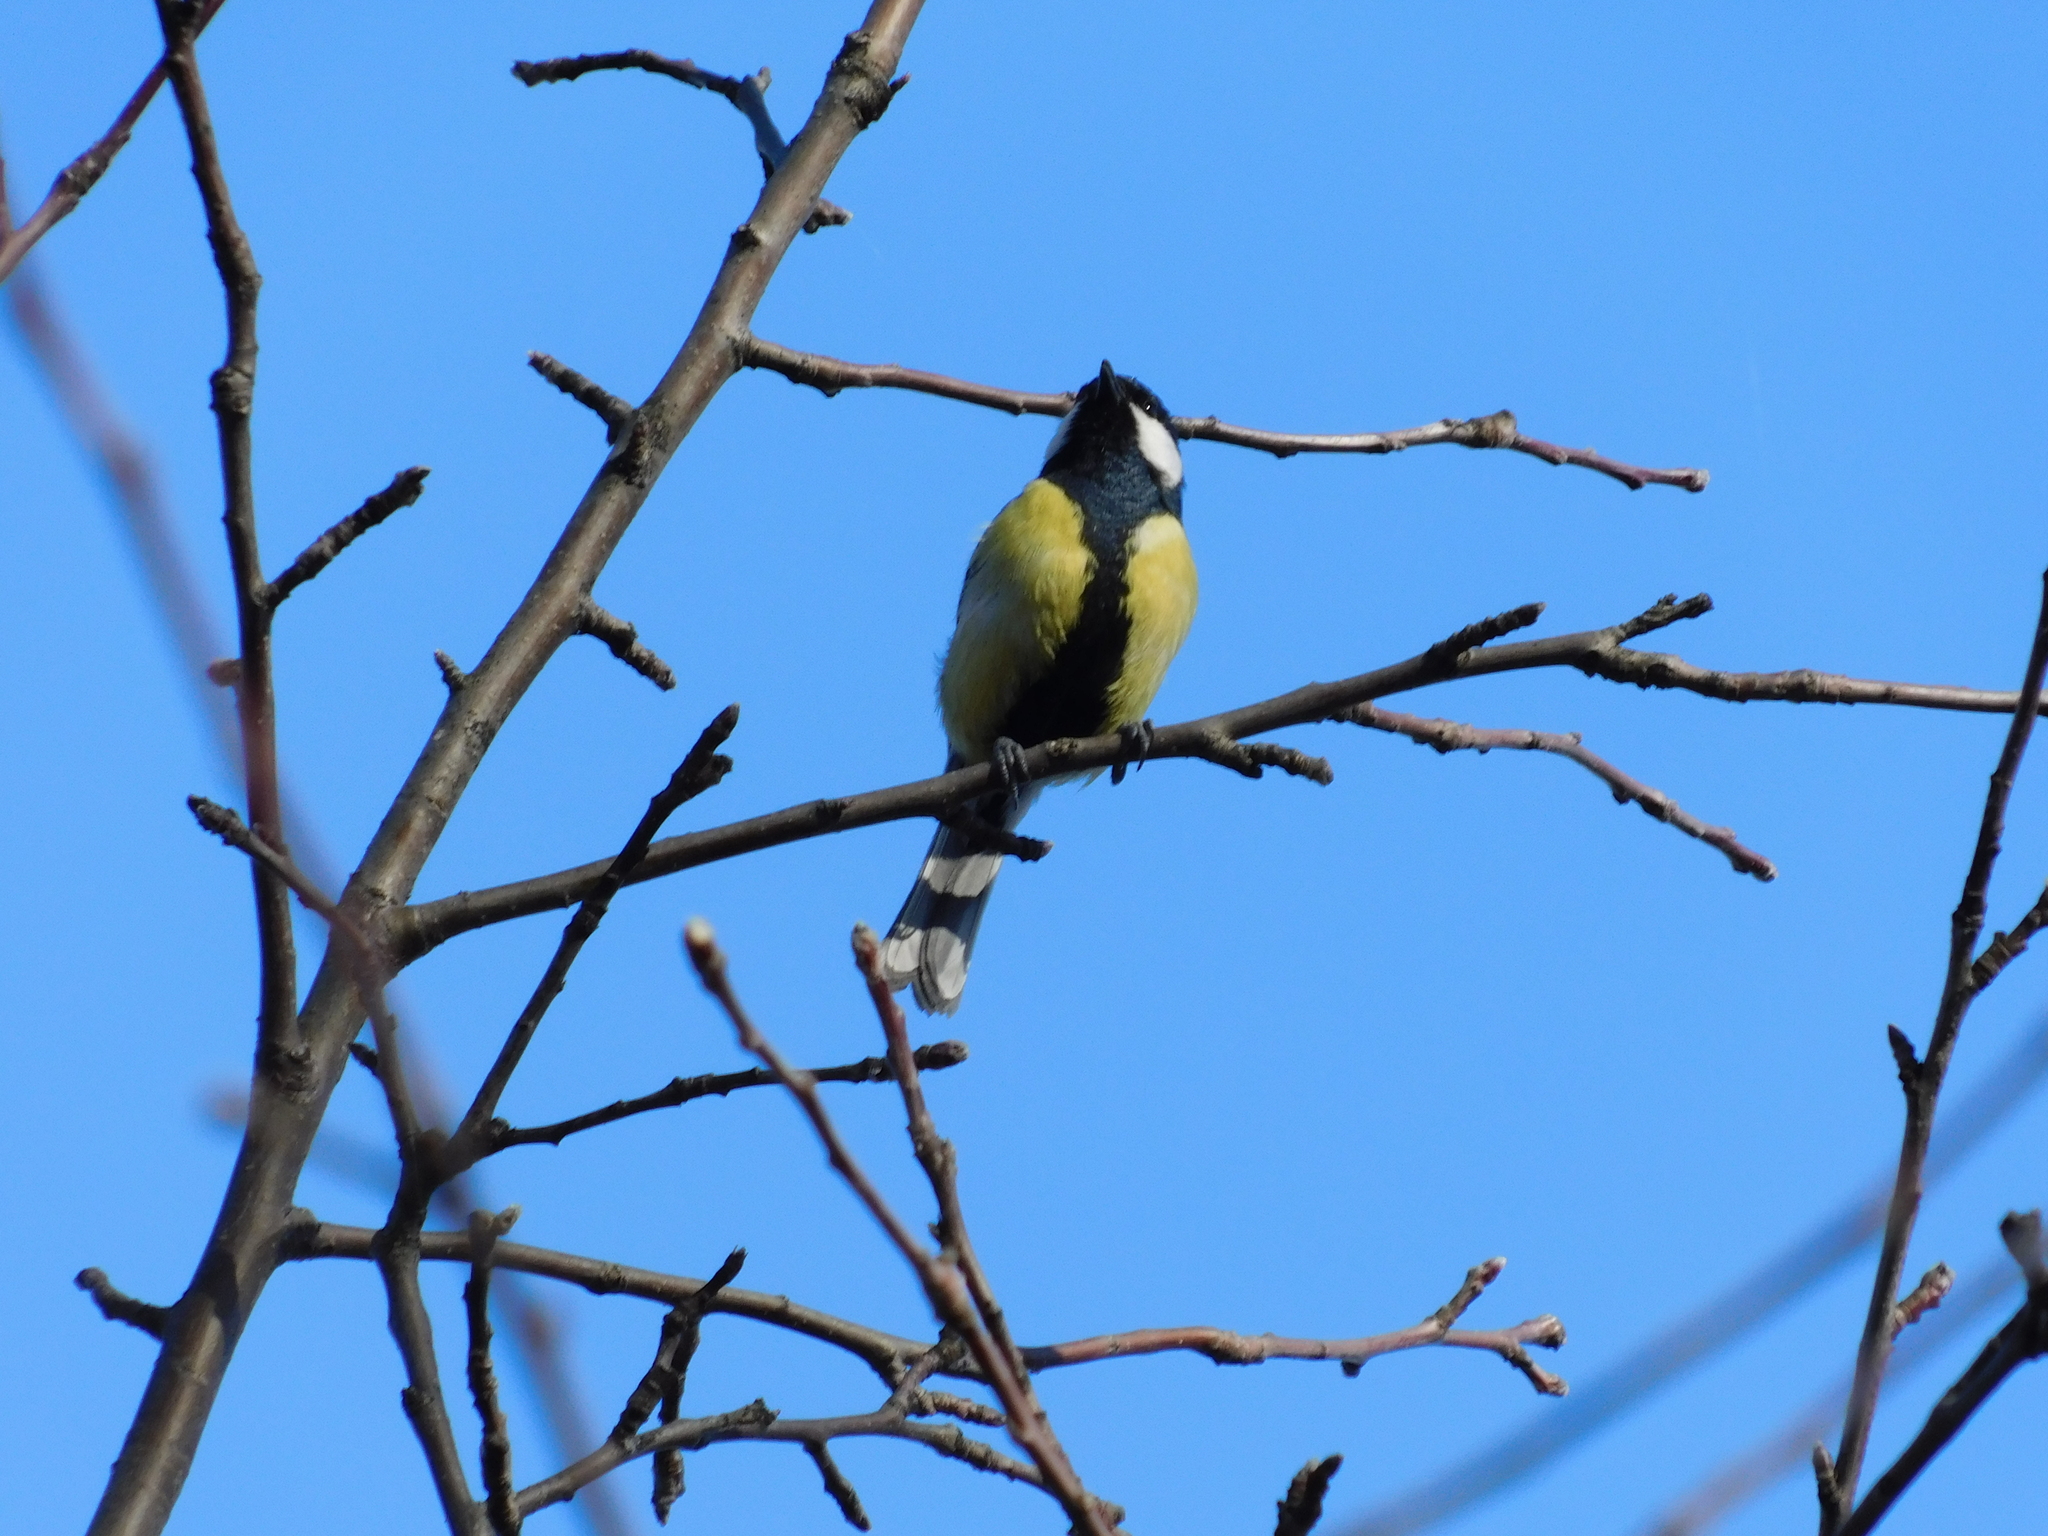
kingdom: Animalia
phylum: Chordata
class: Aves
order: Passeriformes
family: Paridae
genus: Parus
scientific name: Parus major
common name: Great tit
